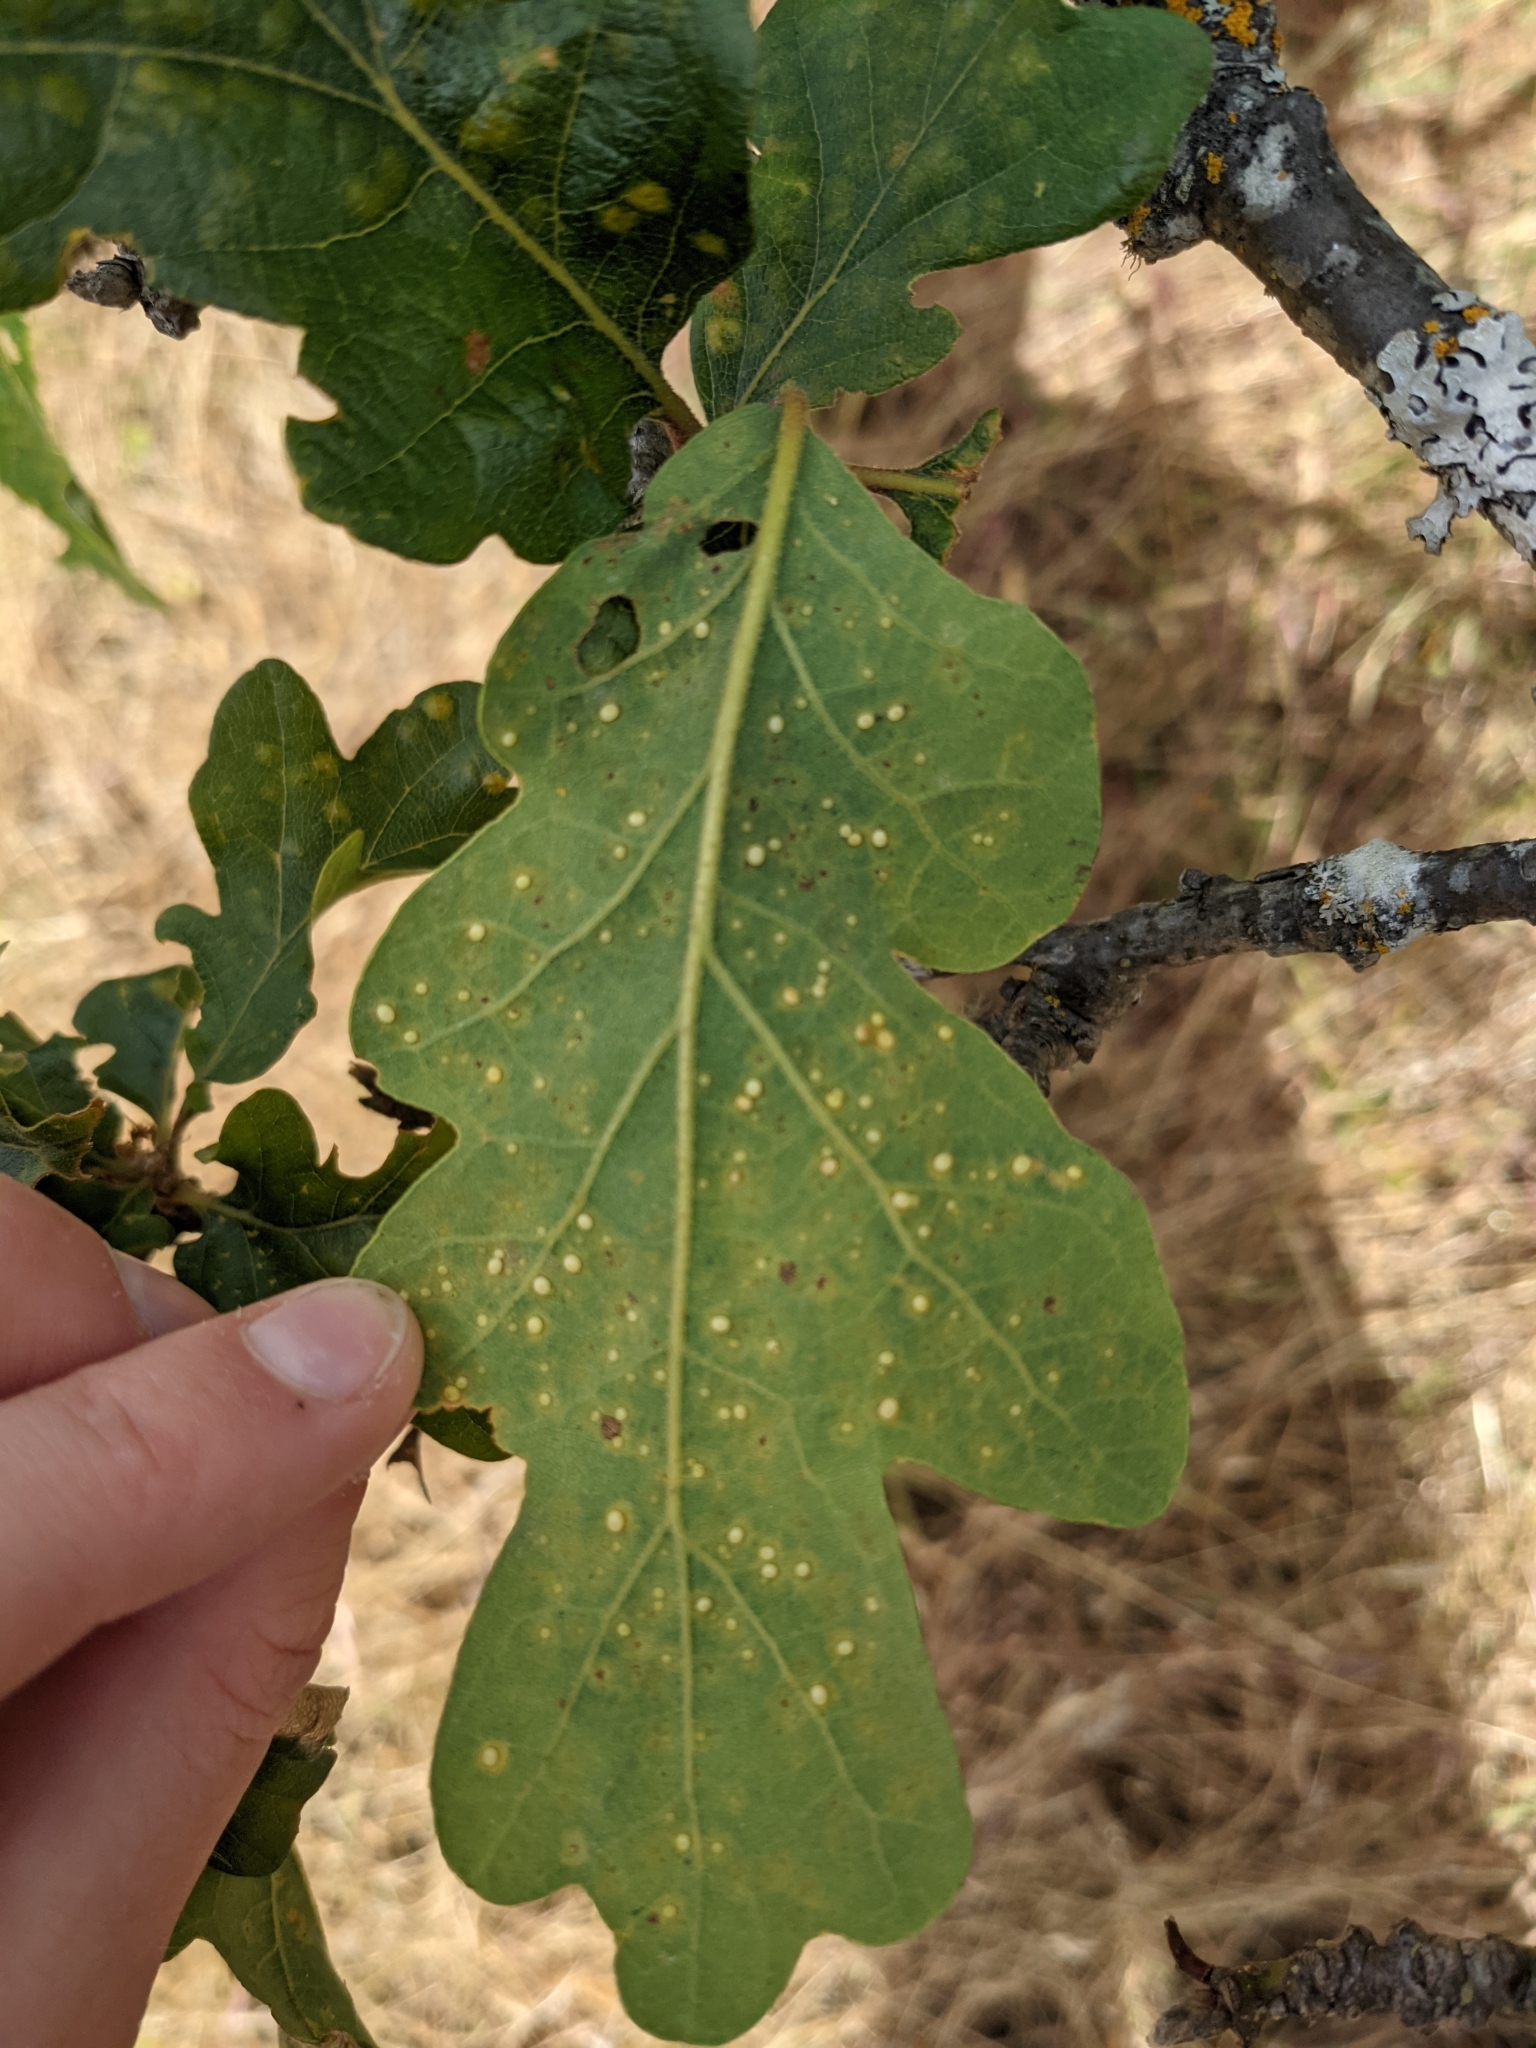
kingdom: Animalia
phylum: Arthropoda
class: Insecta
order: Hymenoptera
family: Cynipidae
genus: Neuroterus
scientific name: Neuroterus saltarius
